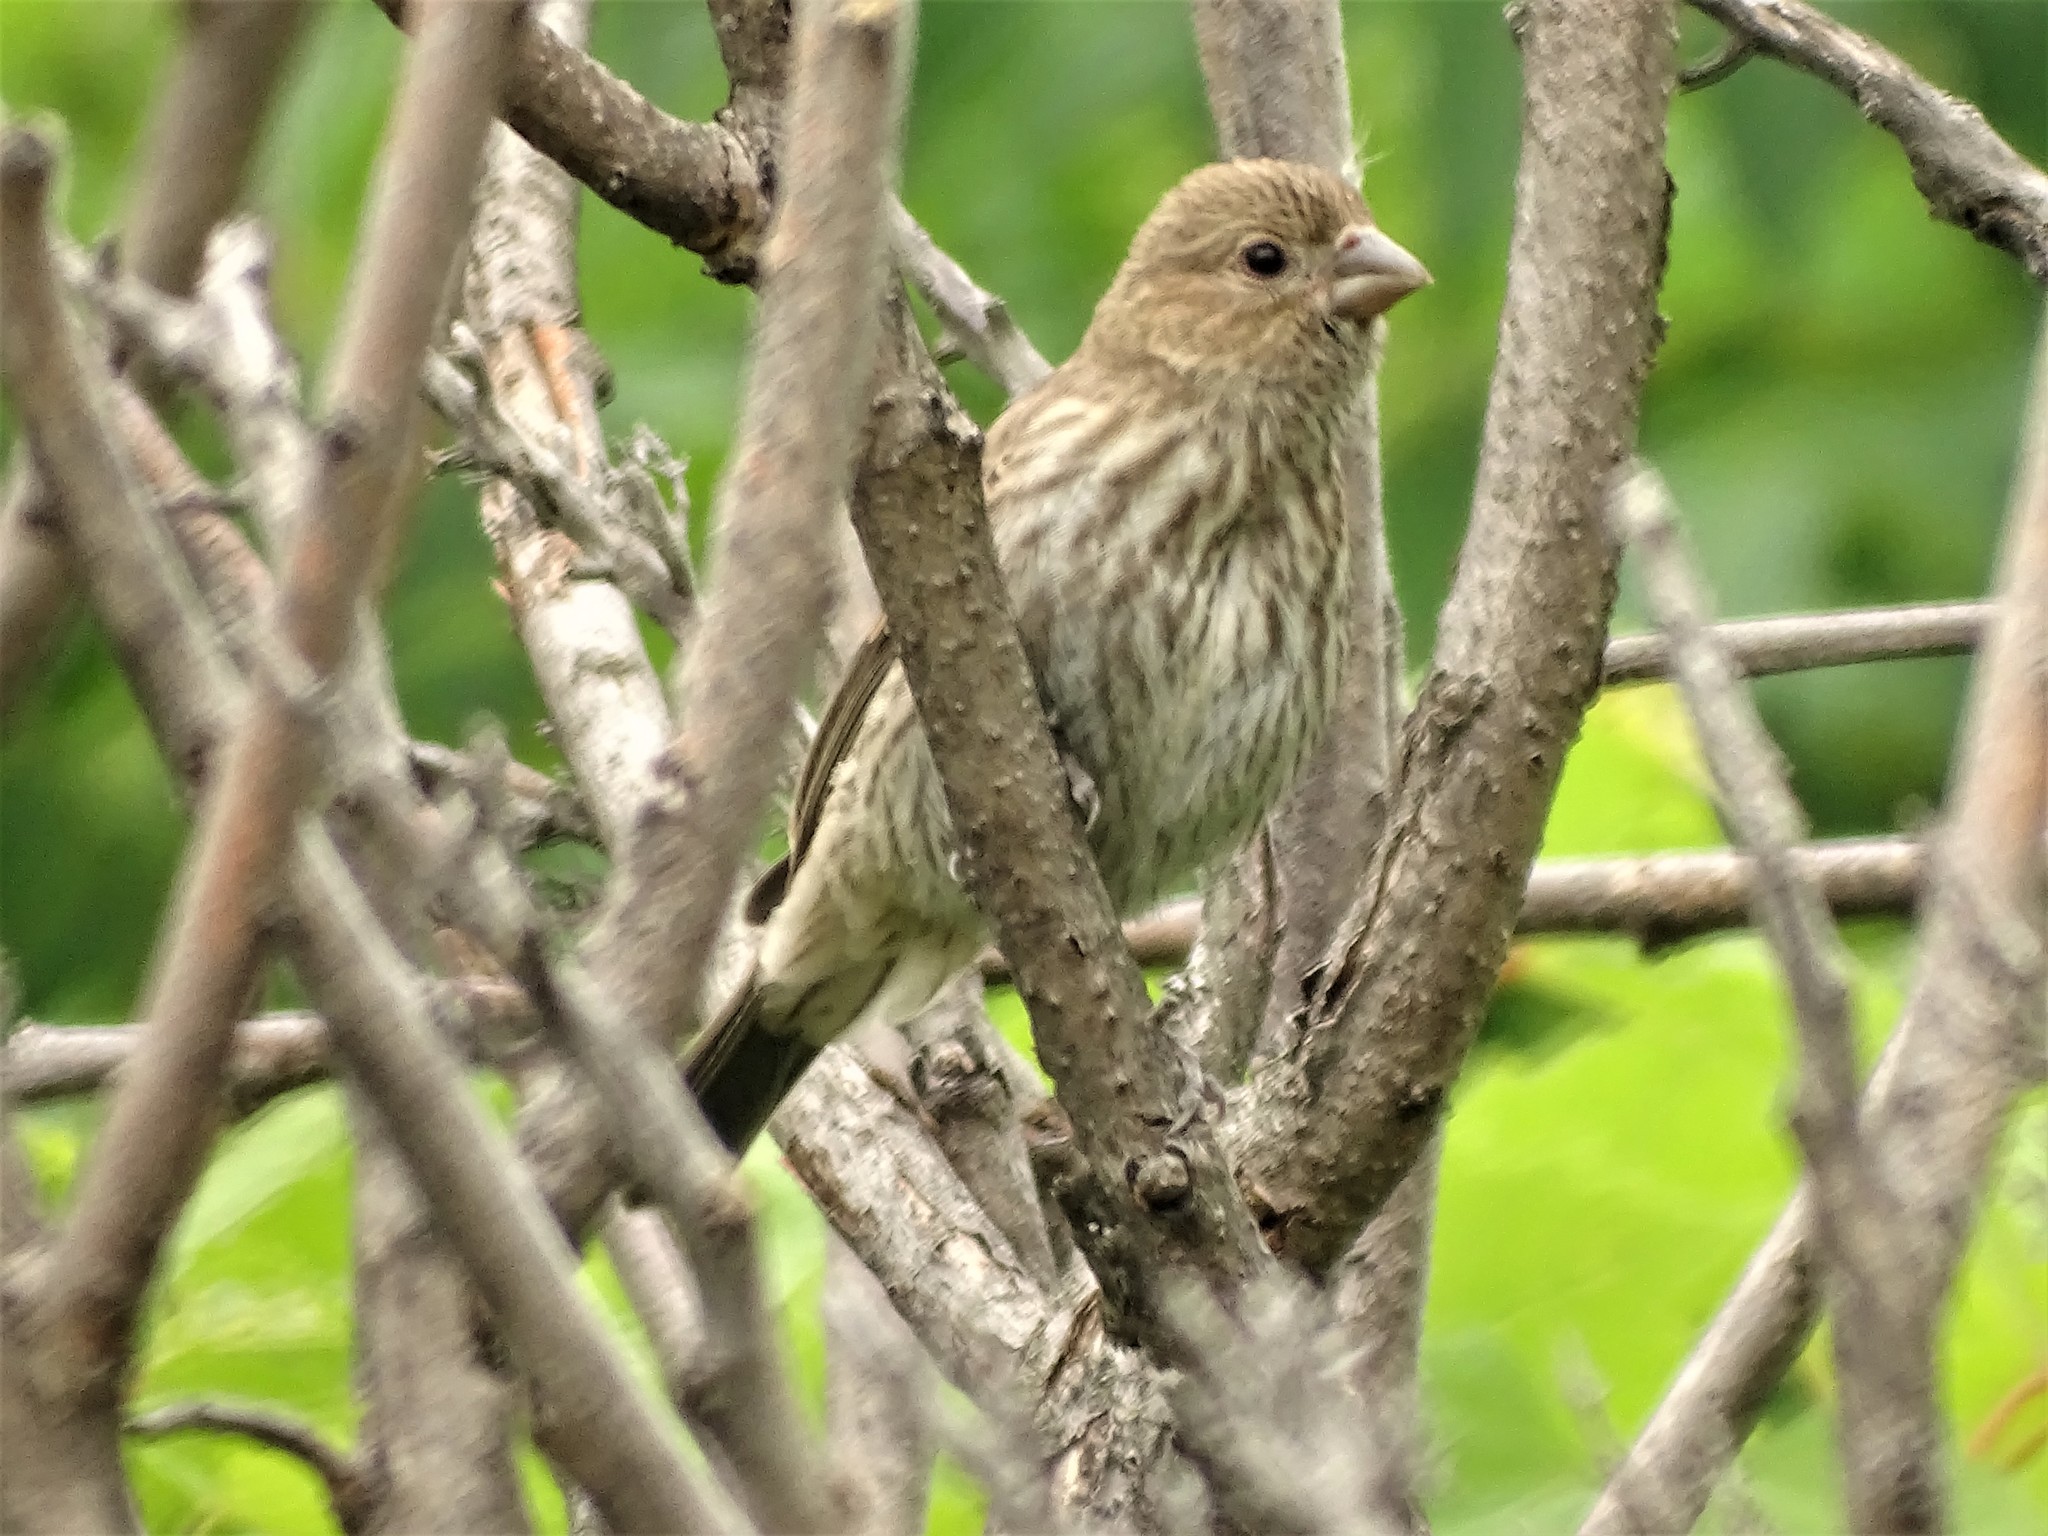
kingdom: Animalia
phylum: Chordata
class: Aves
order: Passeriformes
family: Fringillidae
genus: Haemorhous
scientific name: Haemorhous mexicanus
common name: House finch
